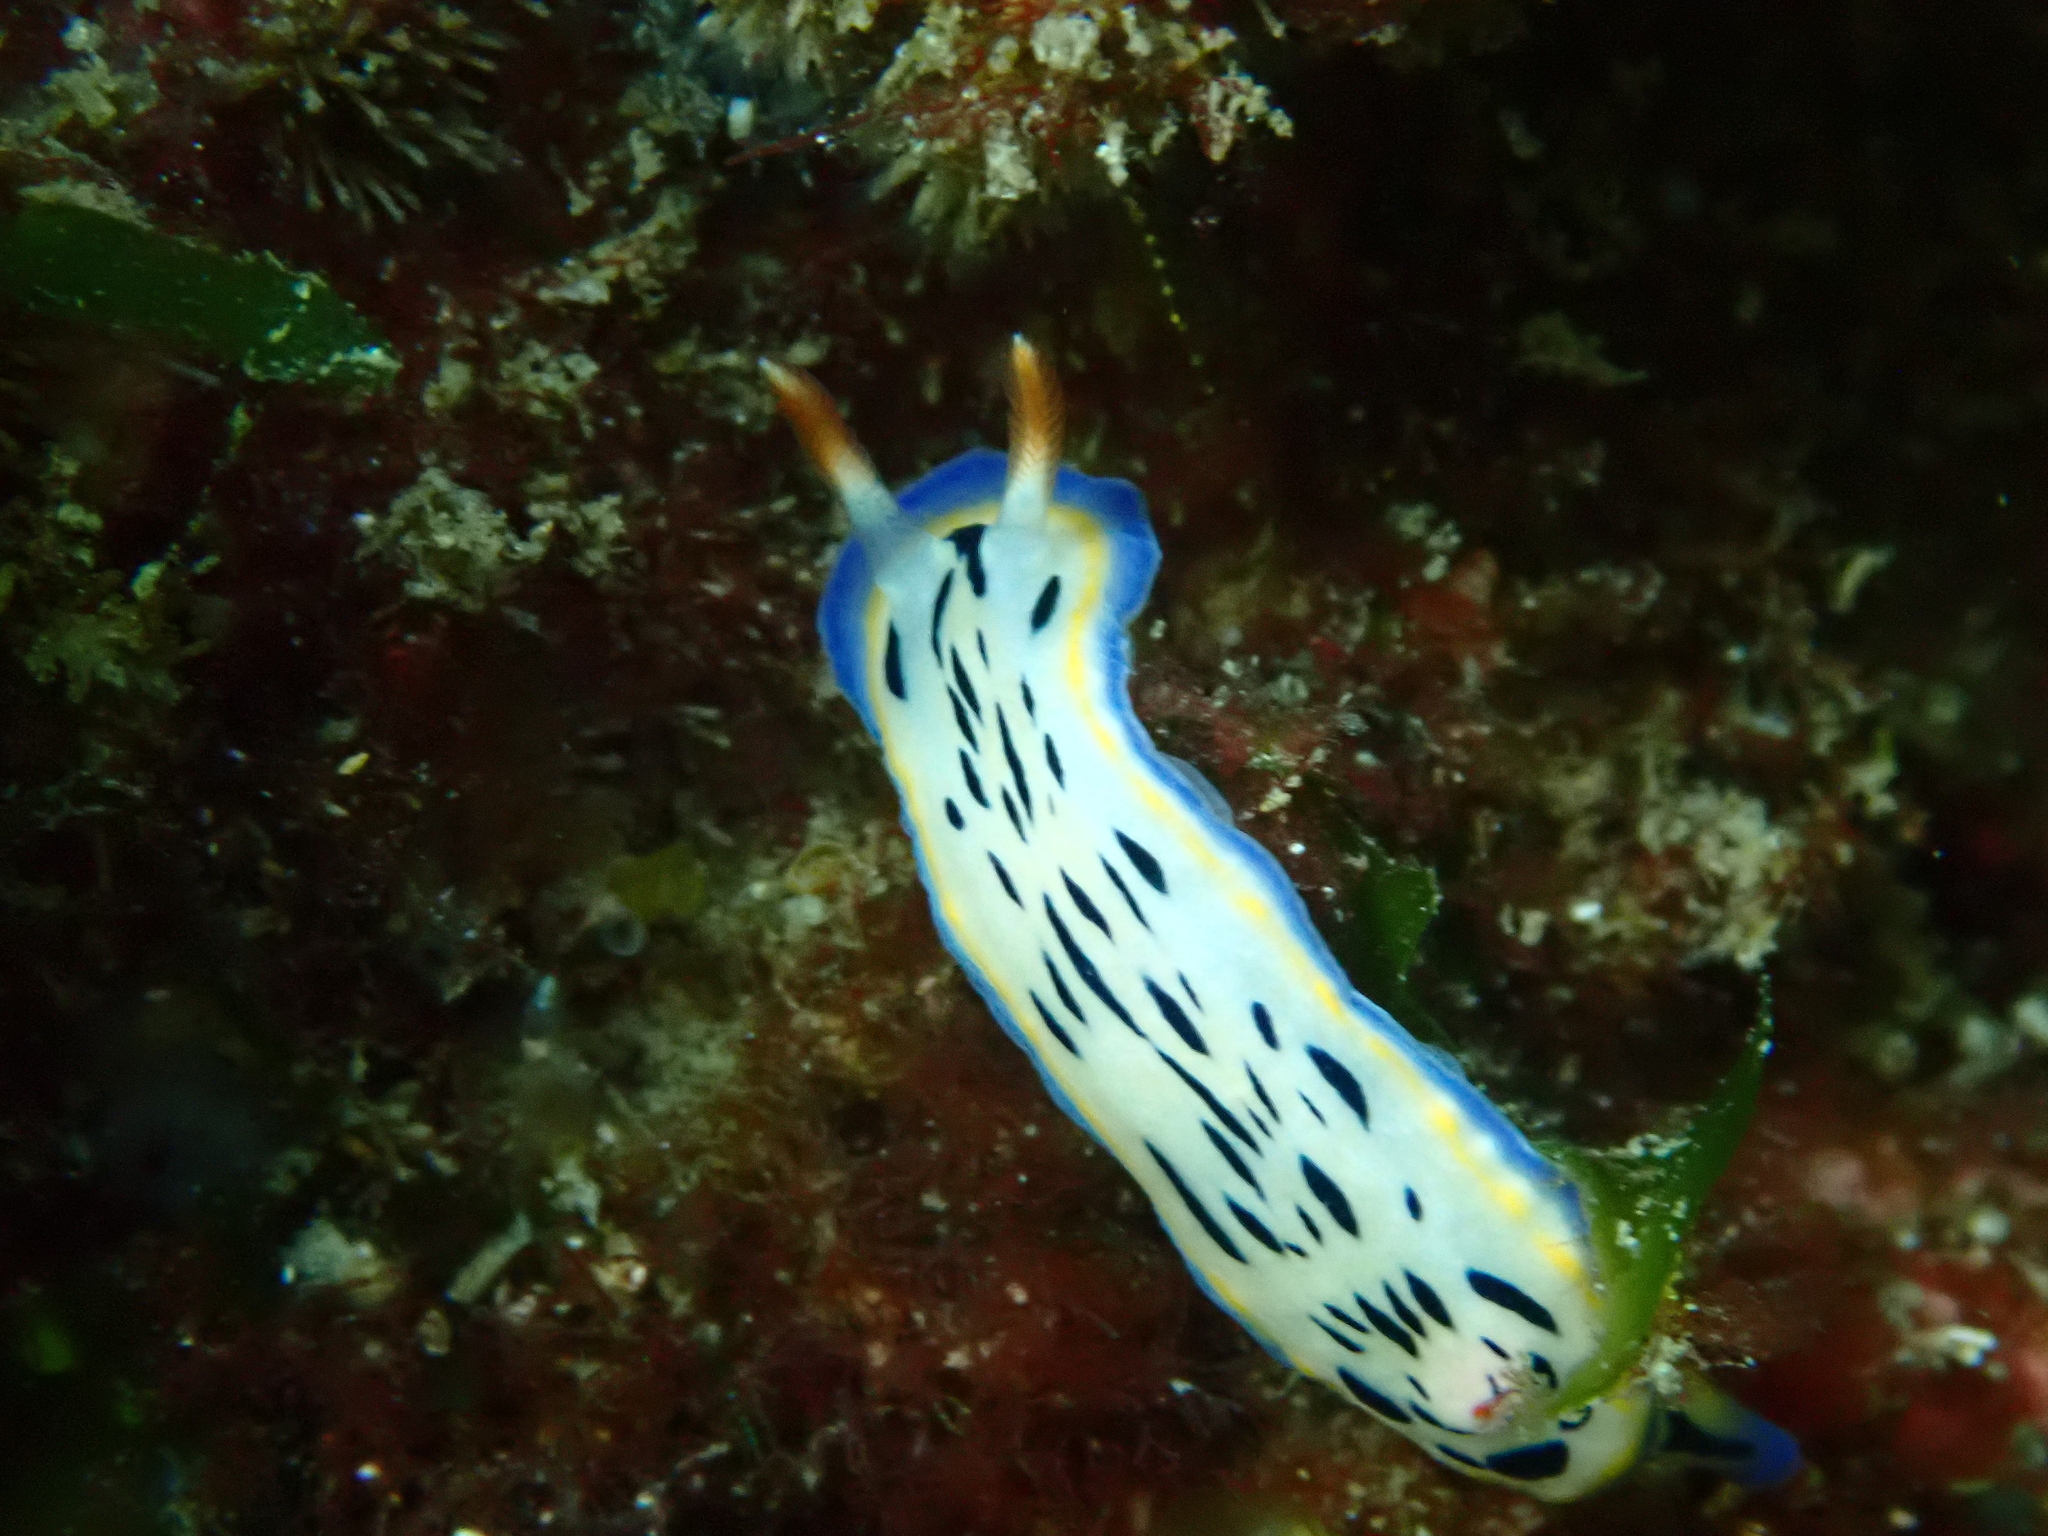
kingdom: Animalia
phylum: Mollusca
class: Gastropoda
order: Nudibranchia
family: Chromodorididae
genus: Hypselodoris
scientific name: Hypselodoris maritima
